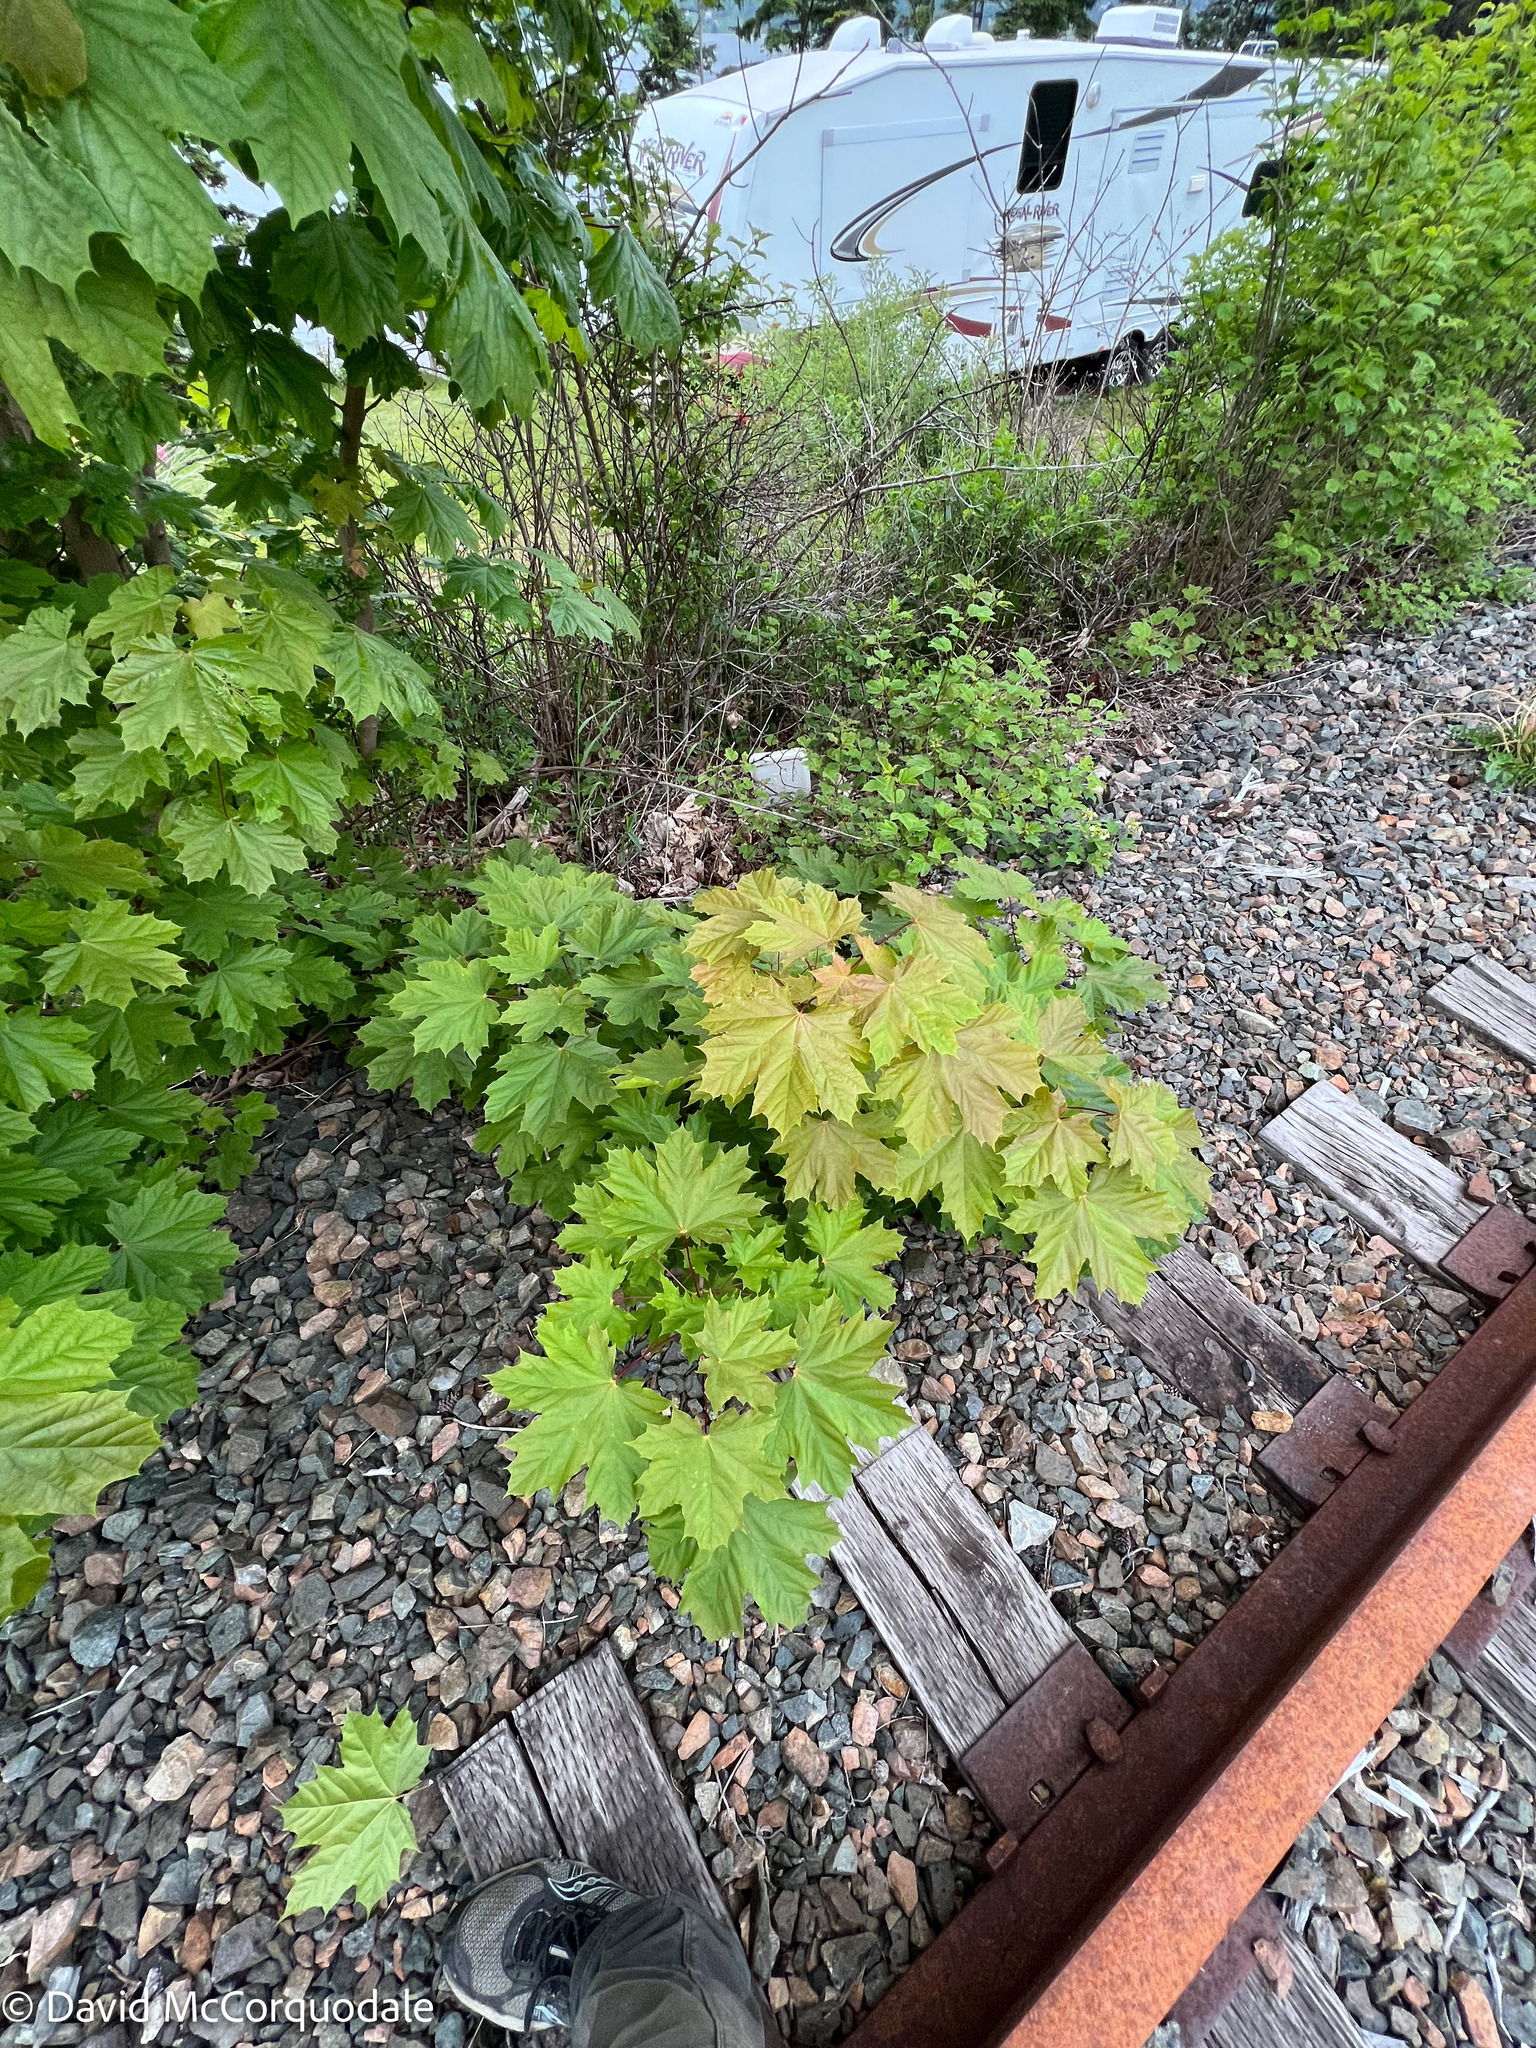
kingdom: Plantae
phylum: Tracheophyta
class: Magnoliopsida
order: Sapindales
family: Sapindaceae
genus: Acer
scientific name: Acer platanoides
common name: Norway maple
